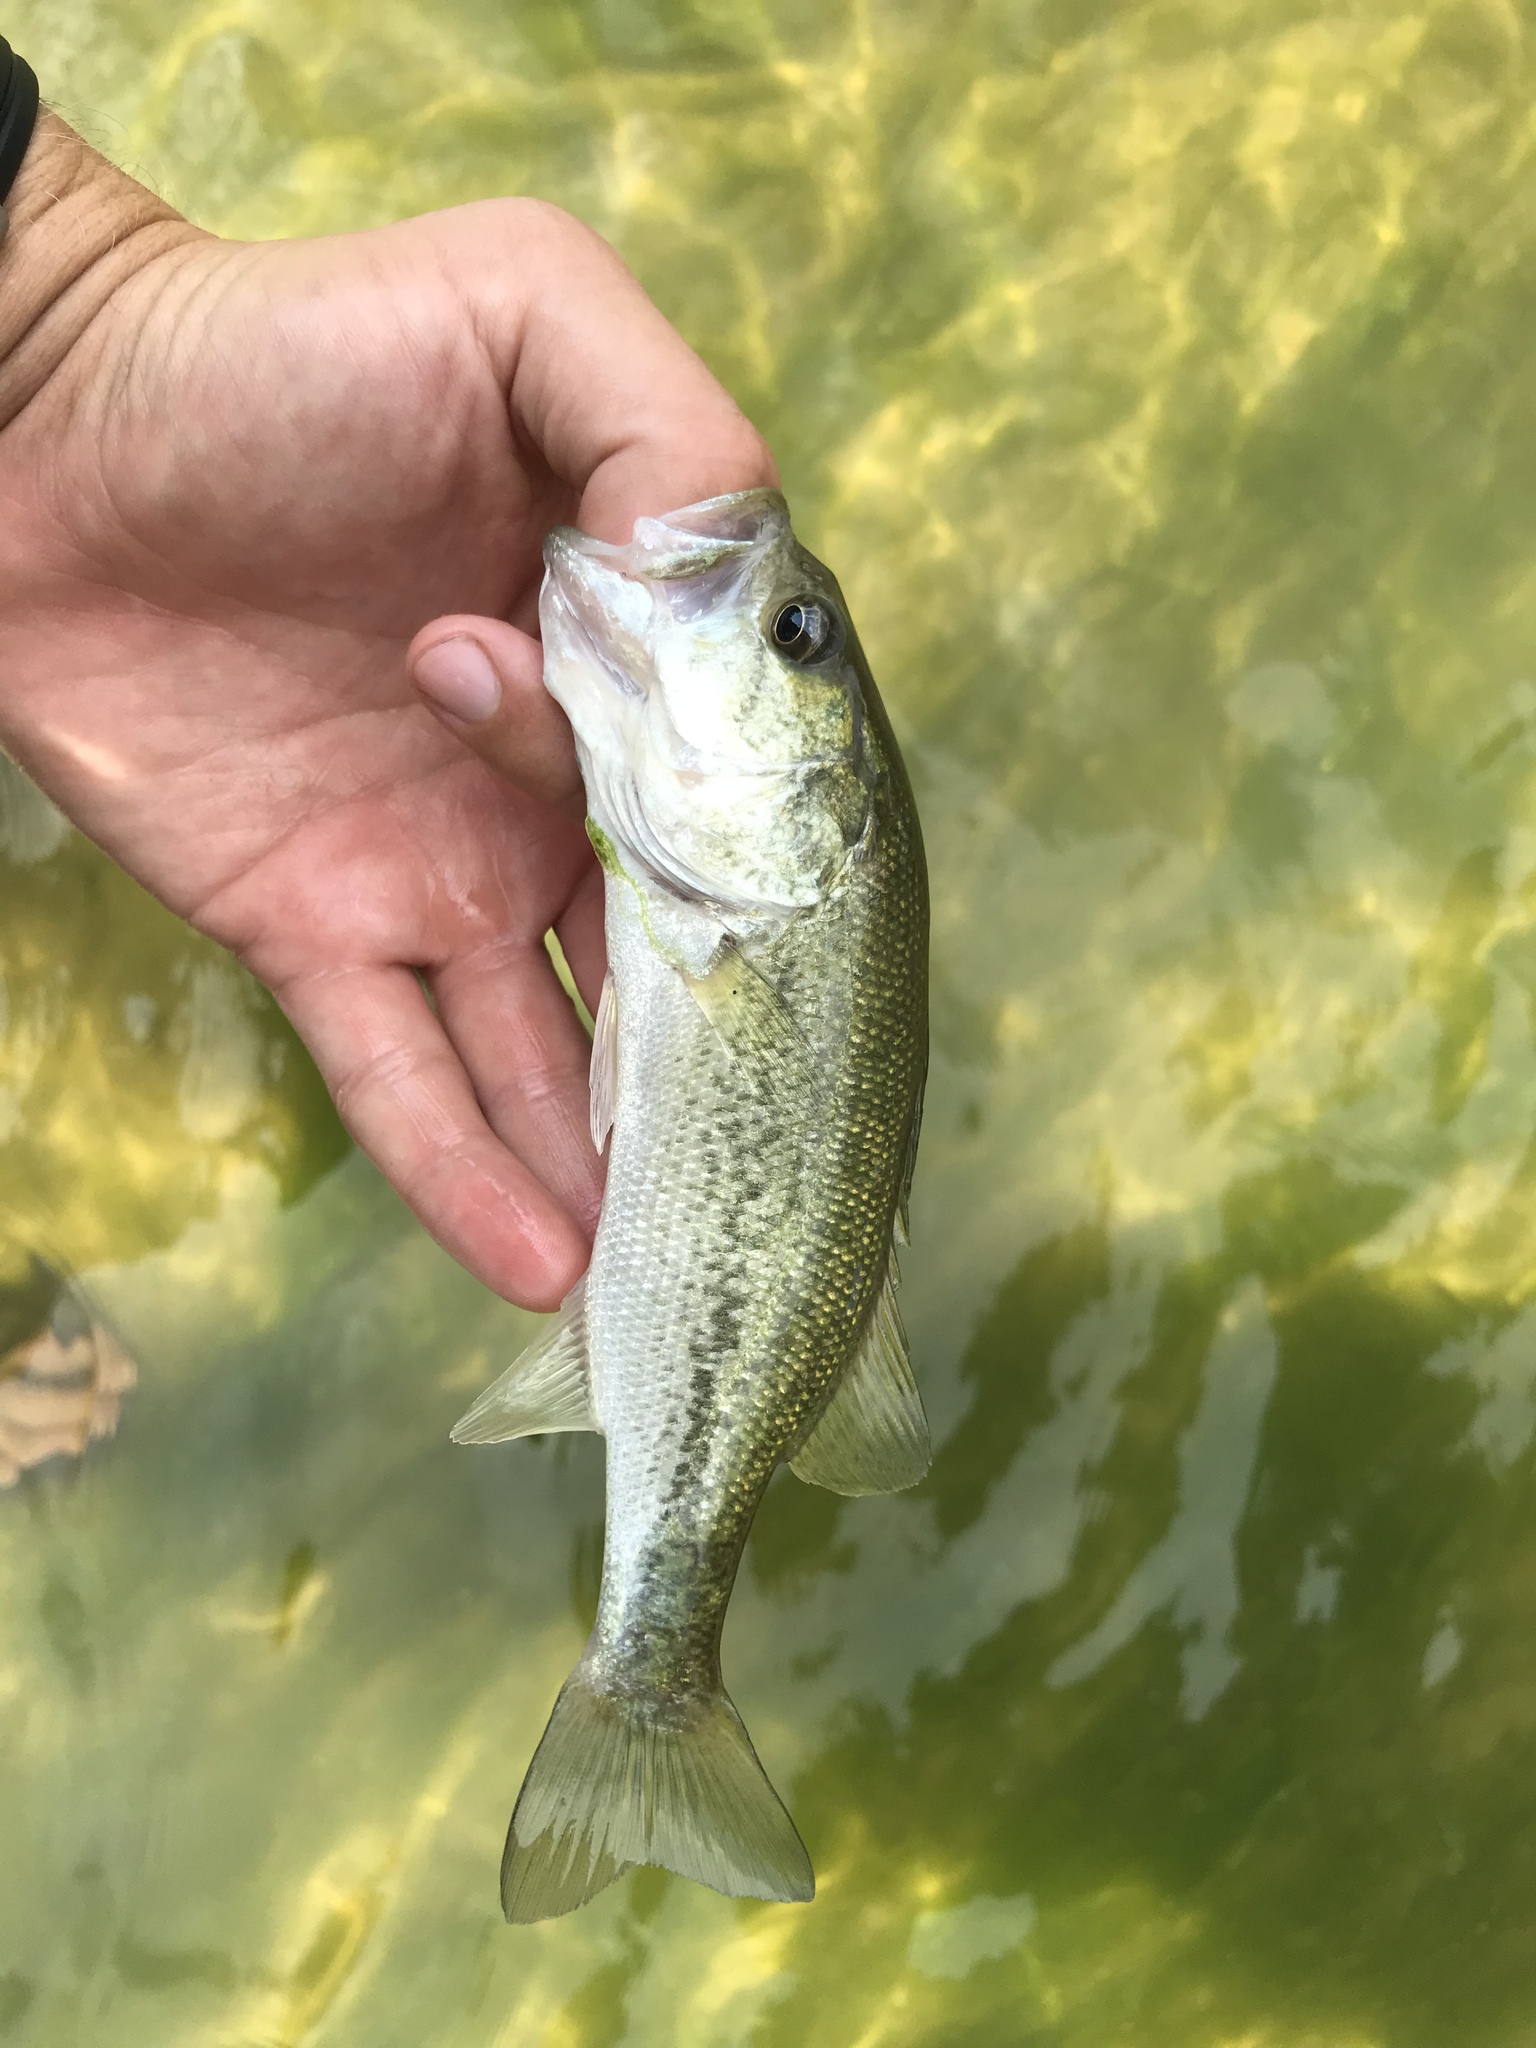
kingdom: Animalia
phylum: Chordata
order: Perciformes
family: Centrarchidae
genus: Micropterus
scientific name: Micropterus
